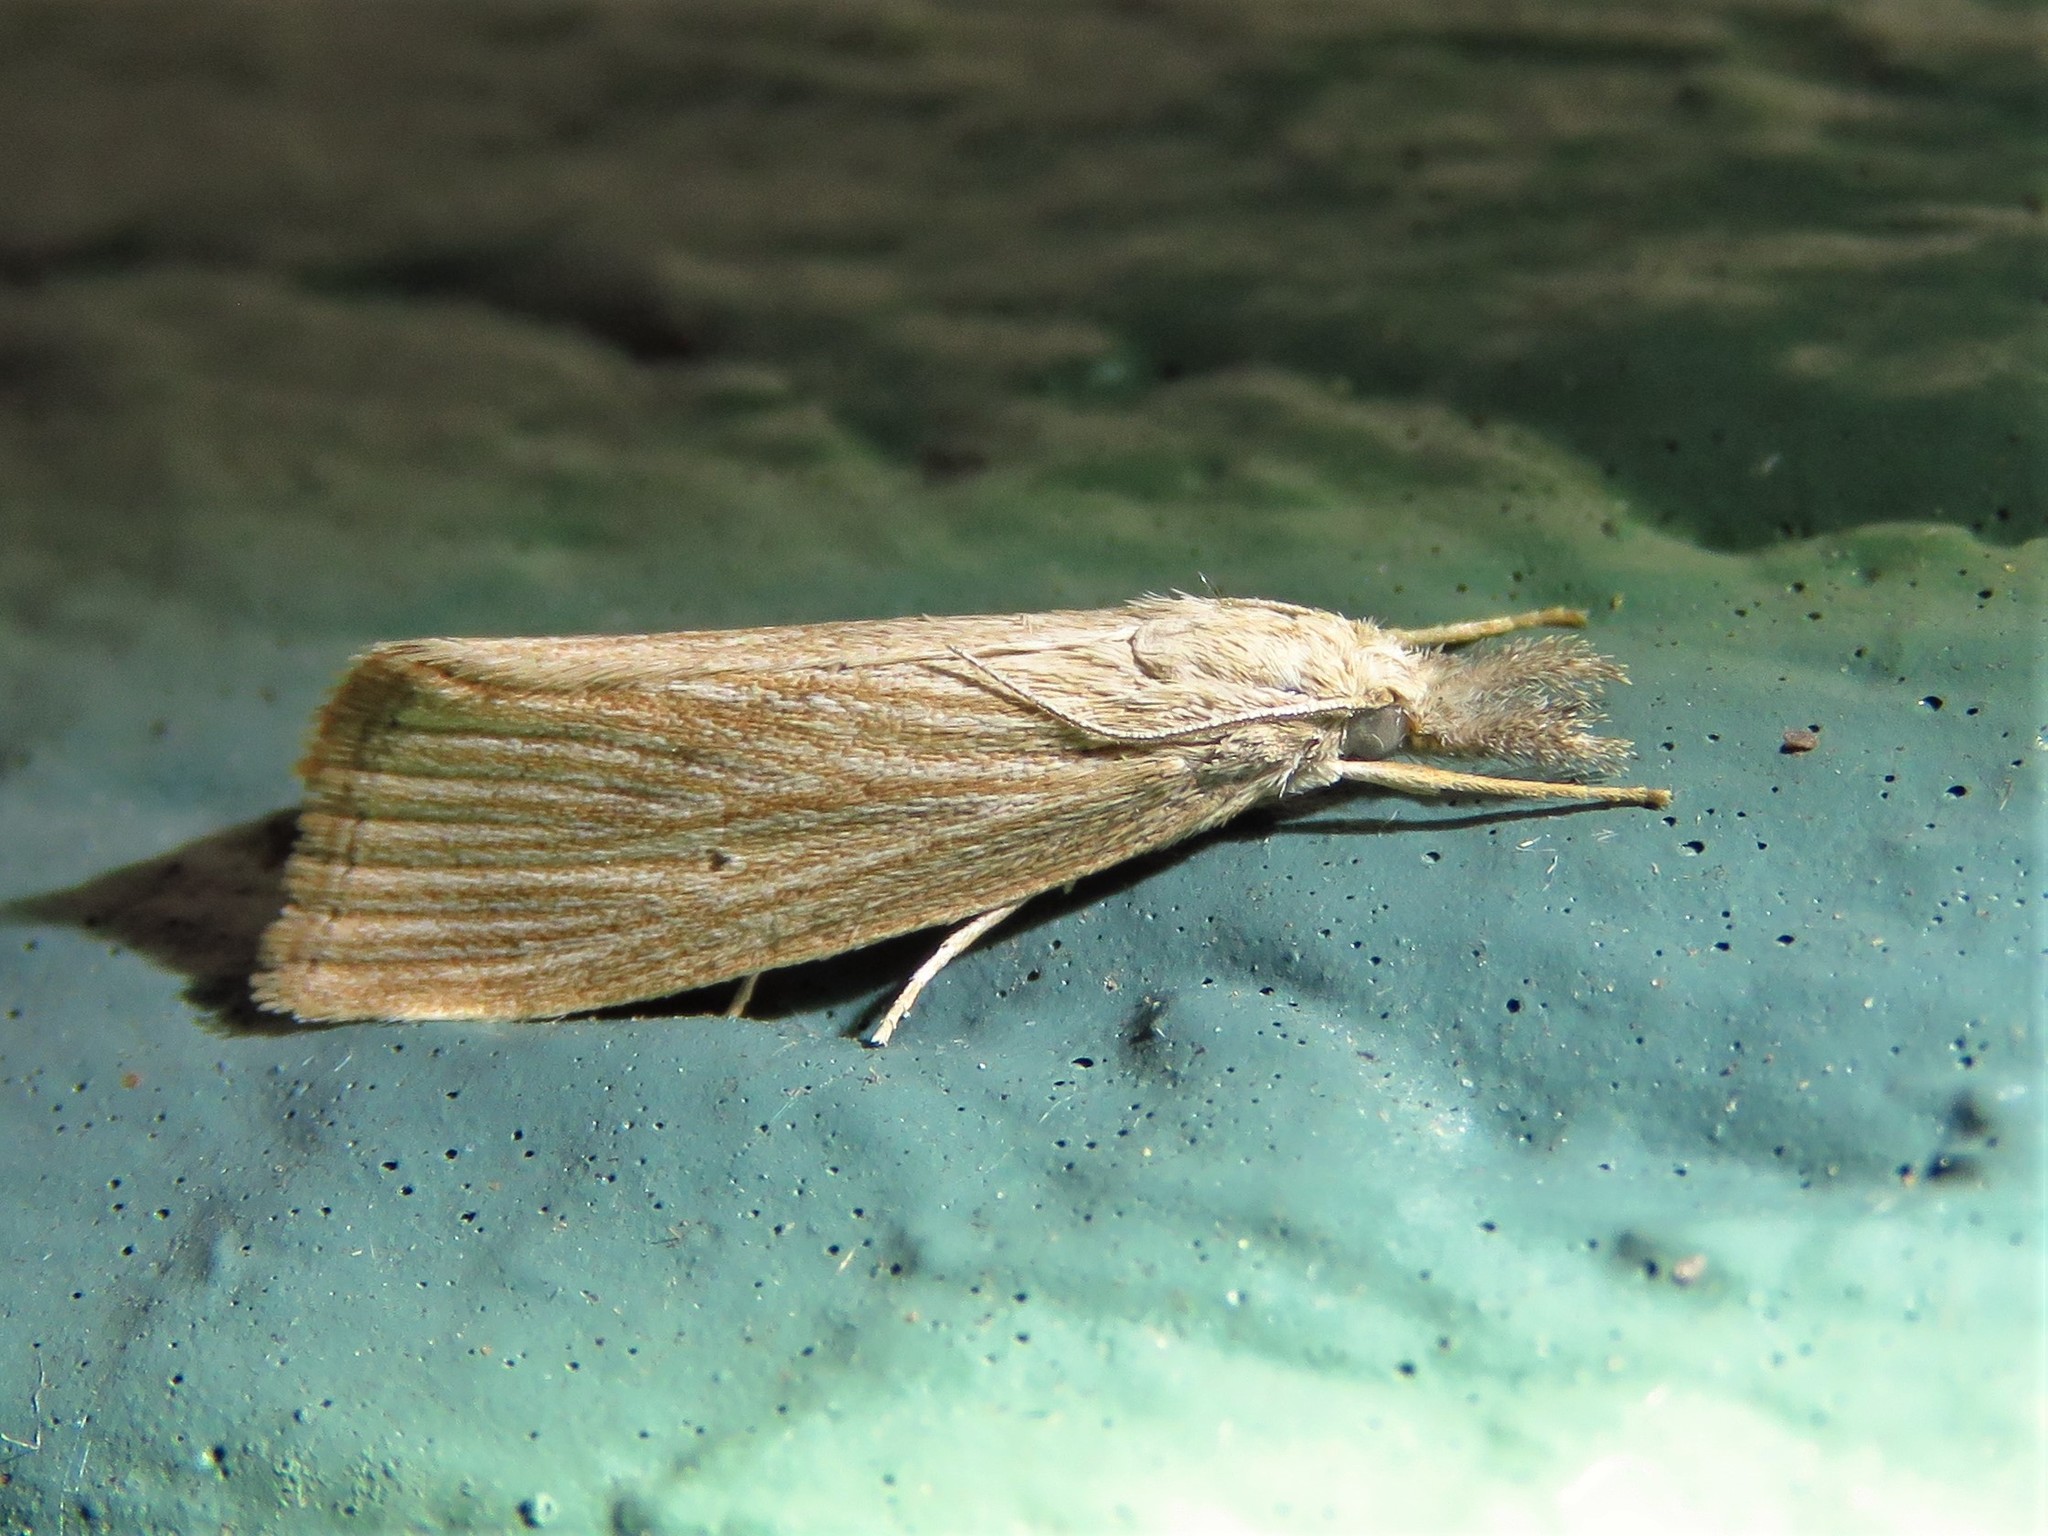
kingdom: Animalia
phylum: Arthropoda
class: Insecta
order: Lepidoptera
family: Crambidae
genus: Diatraea
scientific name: Diatraea evanescens
